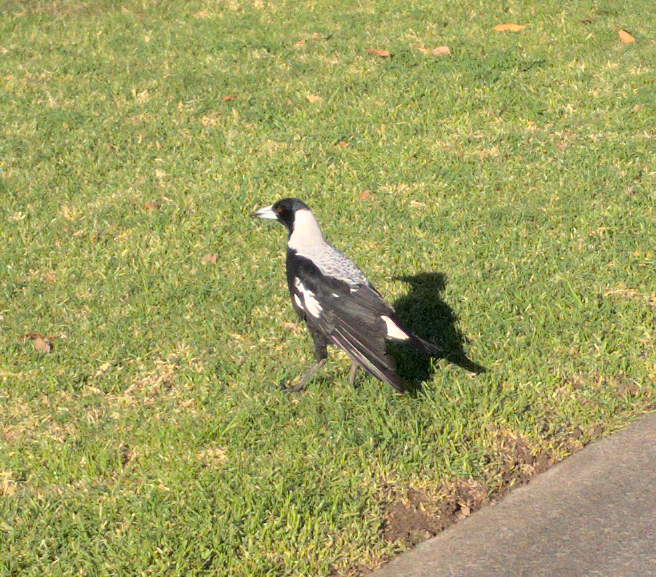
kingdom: Animalia
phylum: Chordata
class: Aves
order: Passeriformes
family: Cracticidae
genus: Gymnorhina
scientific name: Gymnorhina tibicen
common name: Australian magpie
